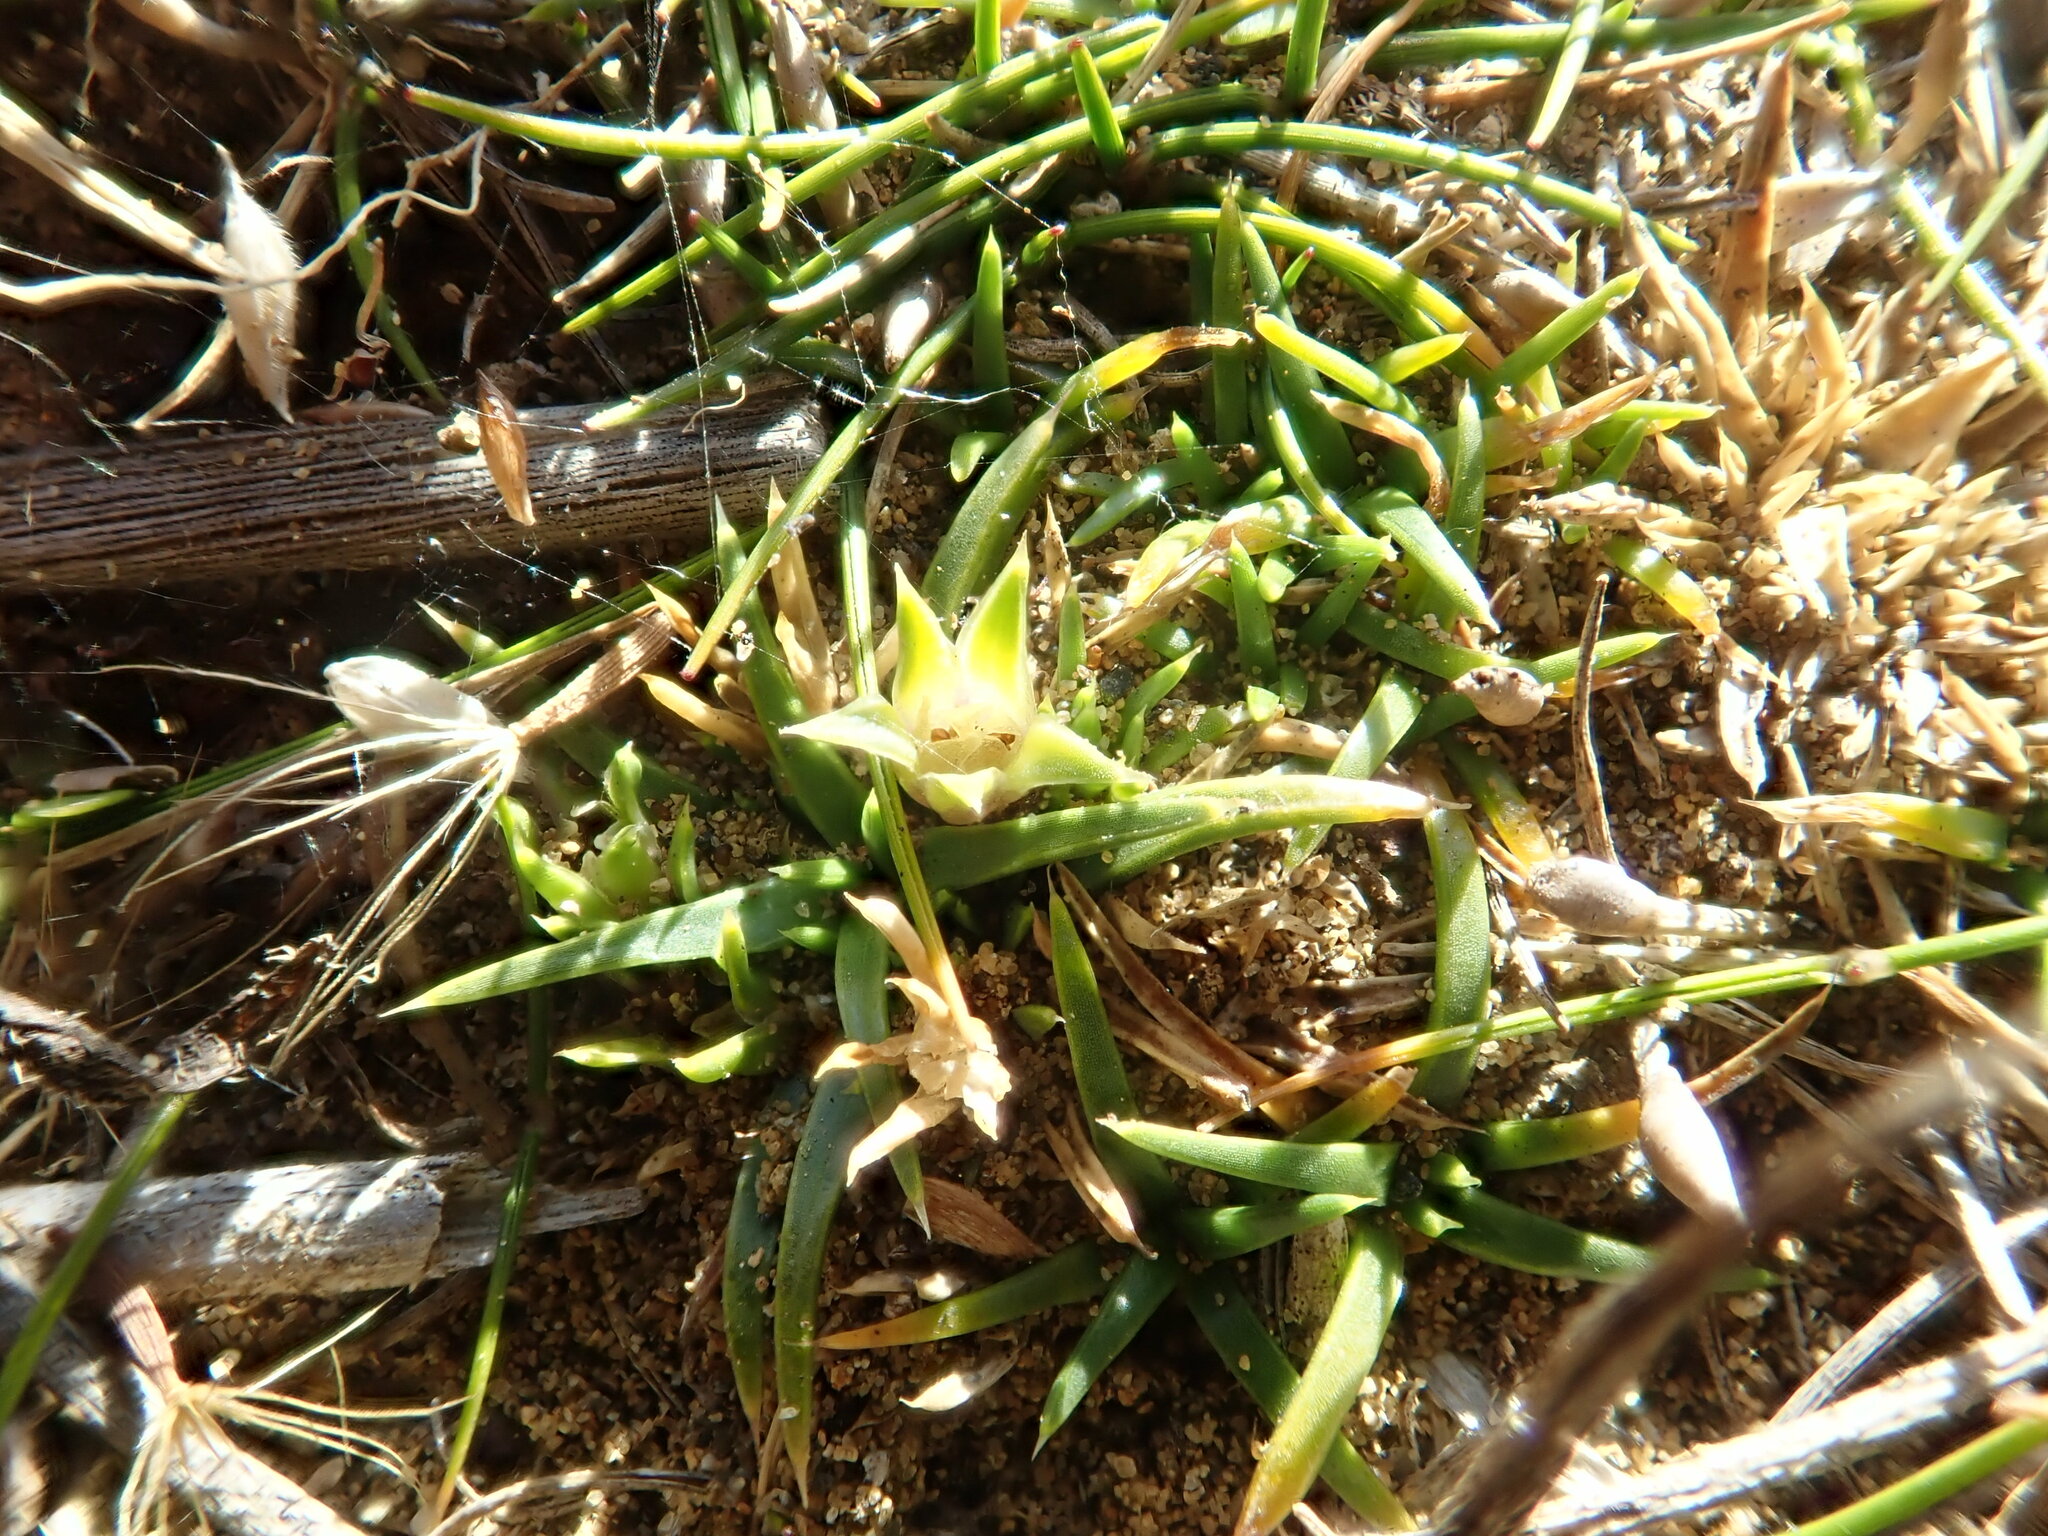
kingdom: Plantae
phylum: Tracheophyta
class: Magnoliopsida
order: Caryophyllales
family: Caryophyllaceae
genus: Colobanthus
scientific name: Colobanthus muelleri
